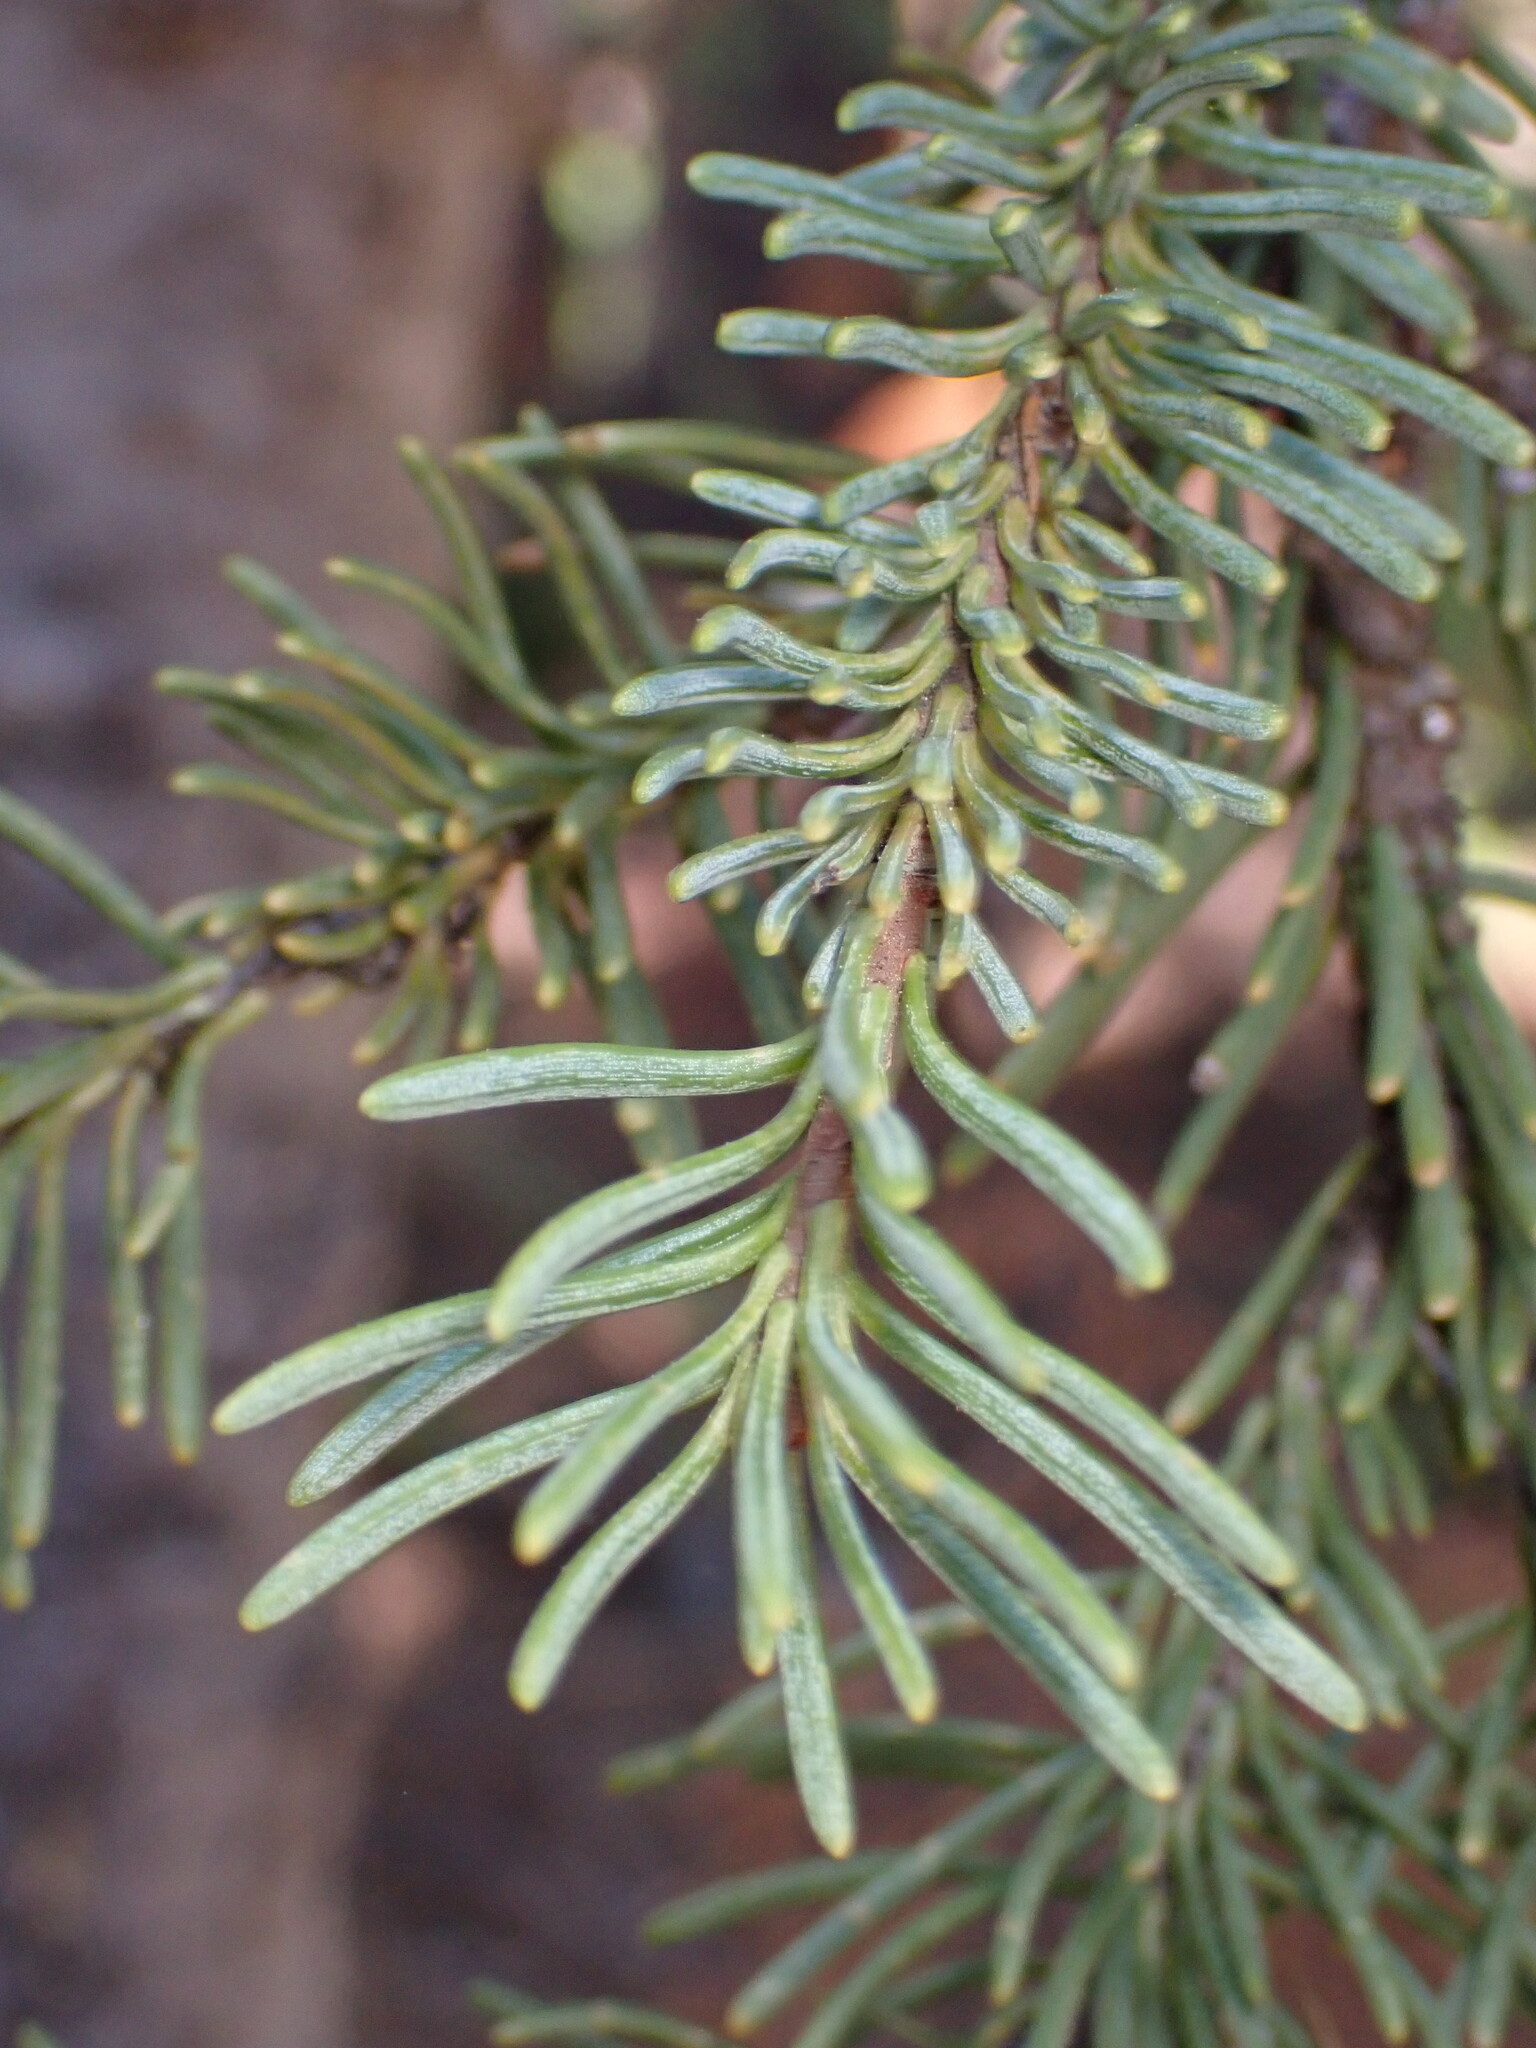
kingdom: Plantae
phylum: Tracheophyta
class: Pinopsida
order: Pinales
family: Pinaceae
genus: Abies
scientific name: Abies magnifica bis
